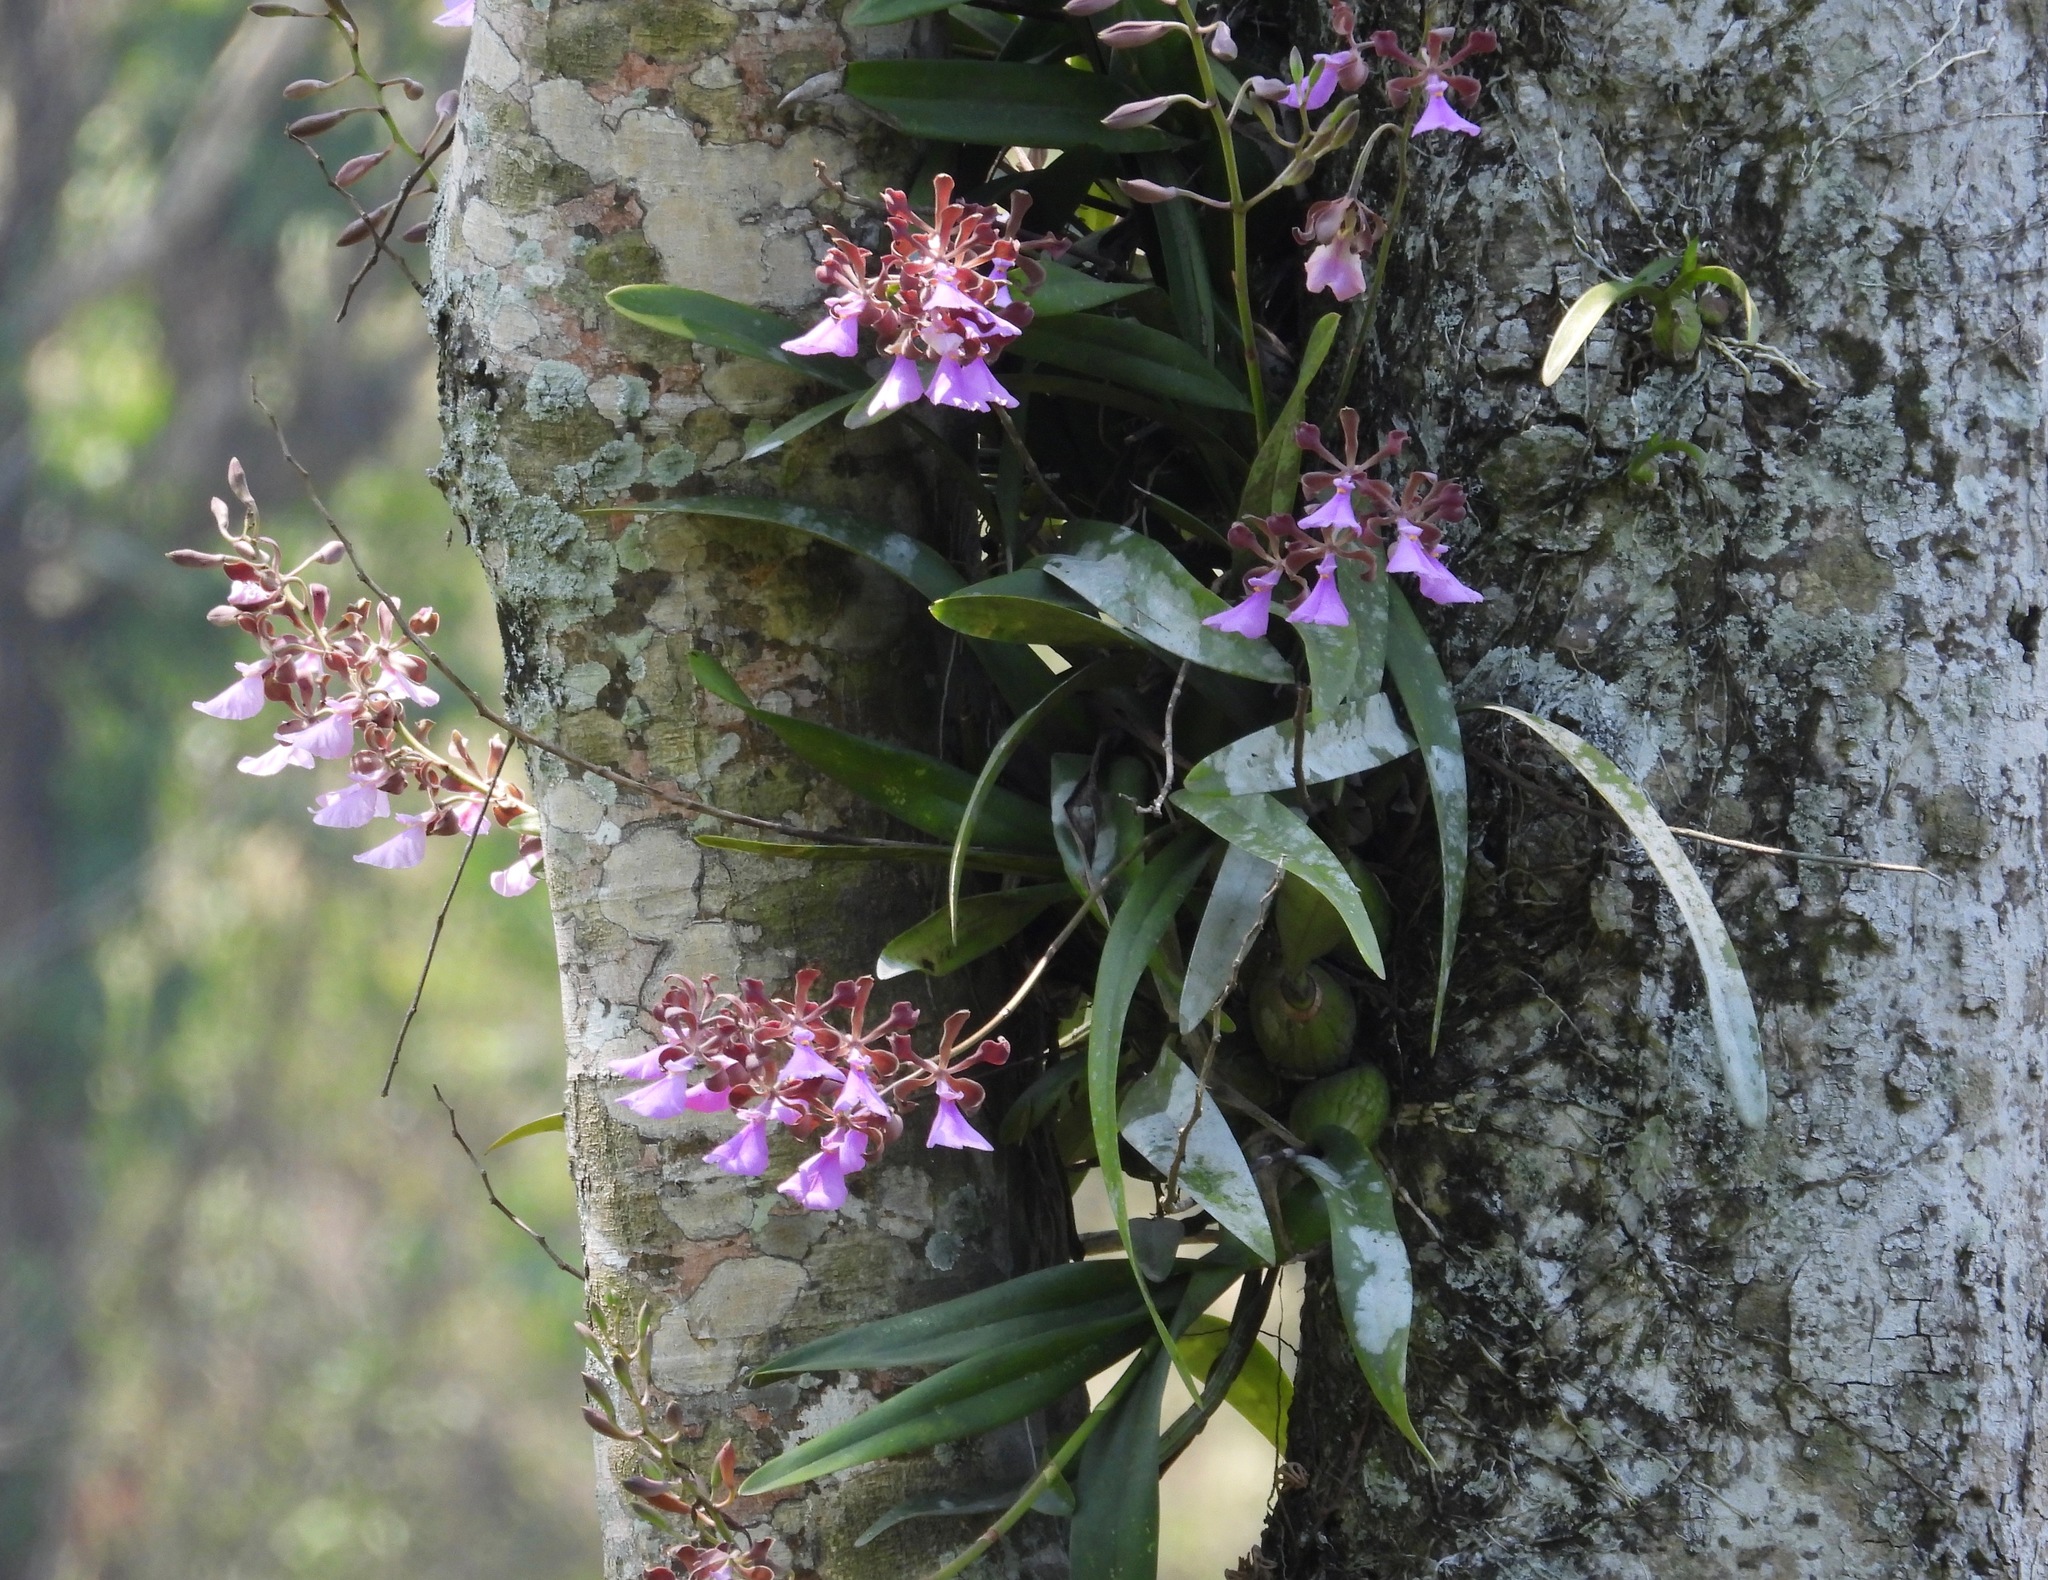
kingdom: Plantae
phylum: Tracheophyta
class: Liliopsida
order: Asparagales
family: Orchidaceae
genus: Encyclia
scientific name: Encyclia cordigera
